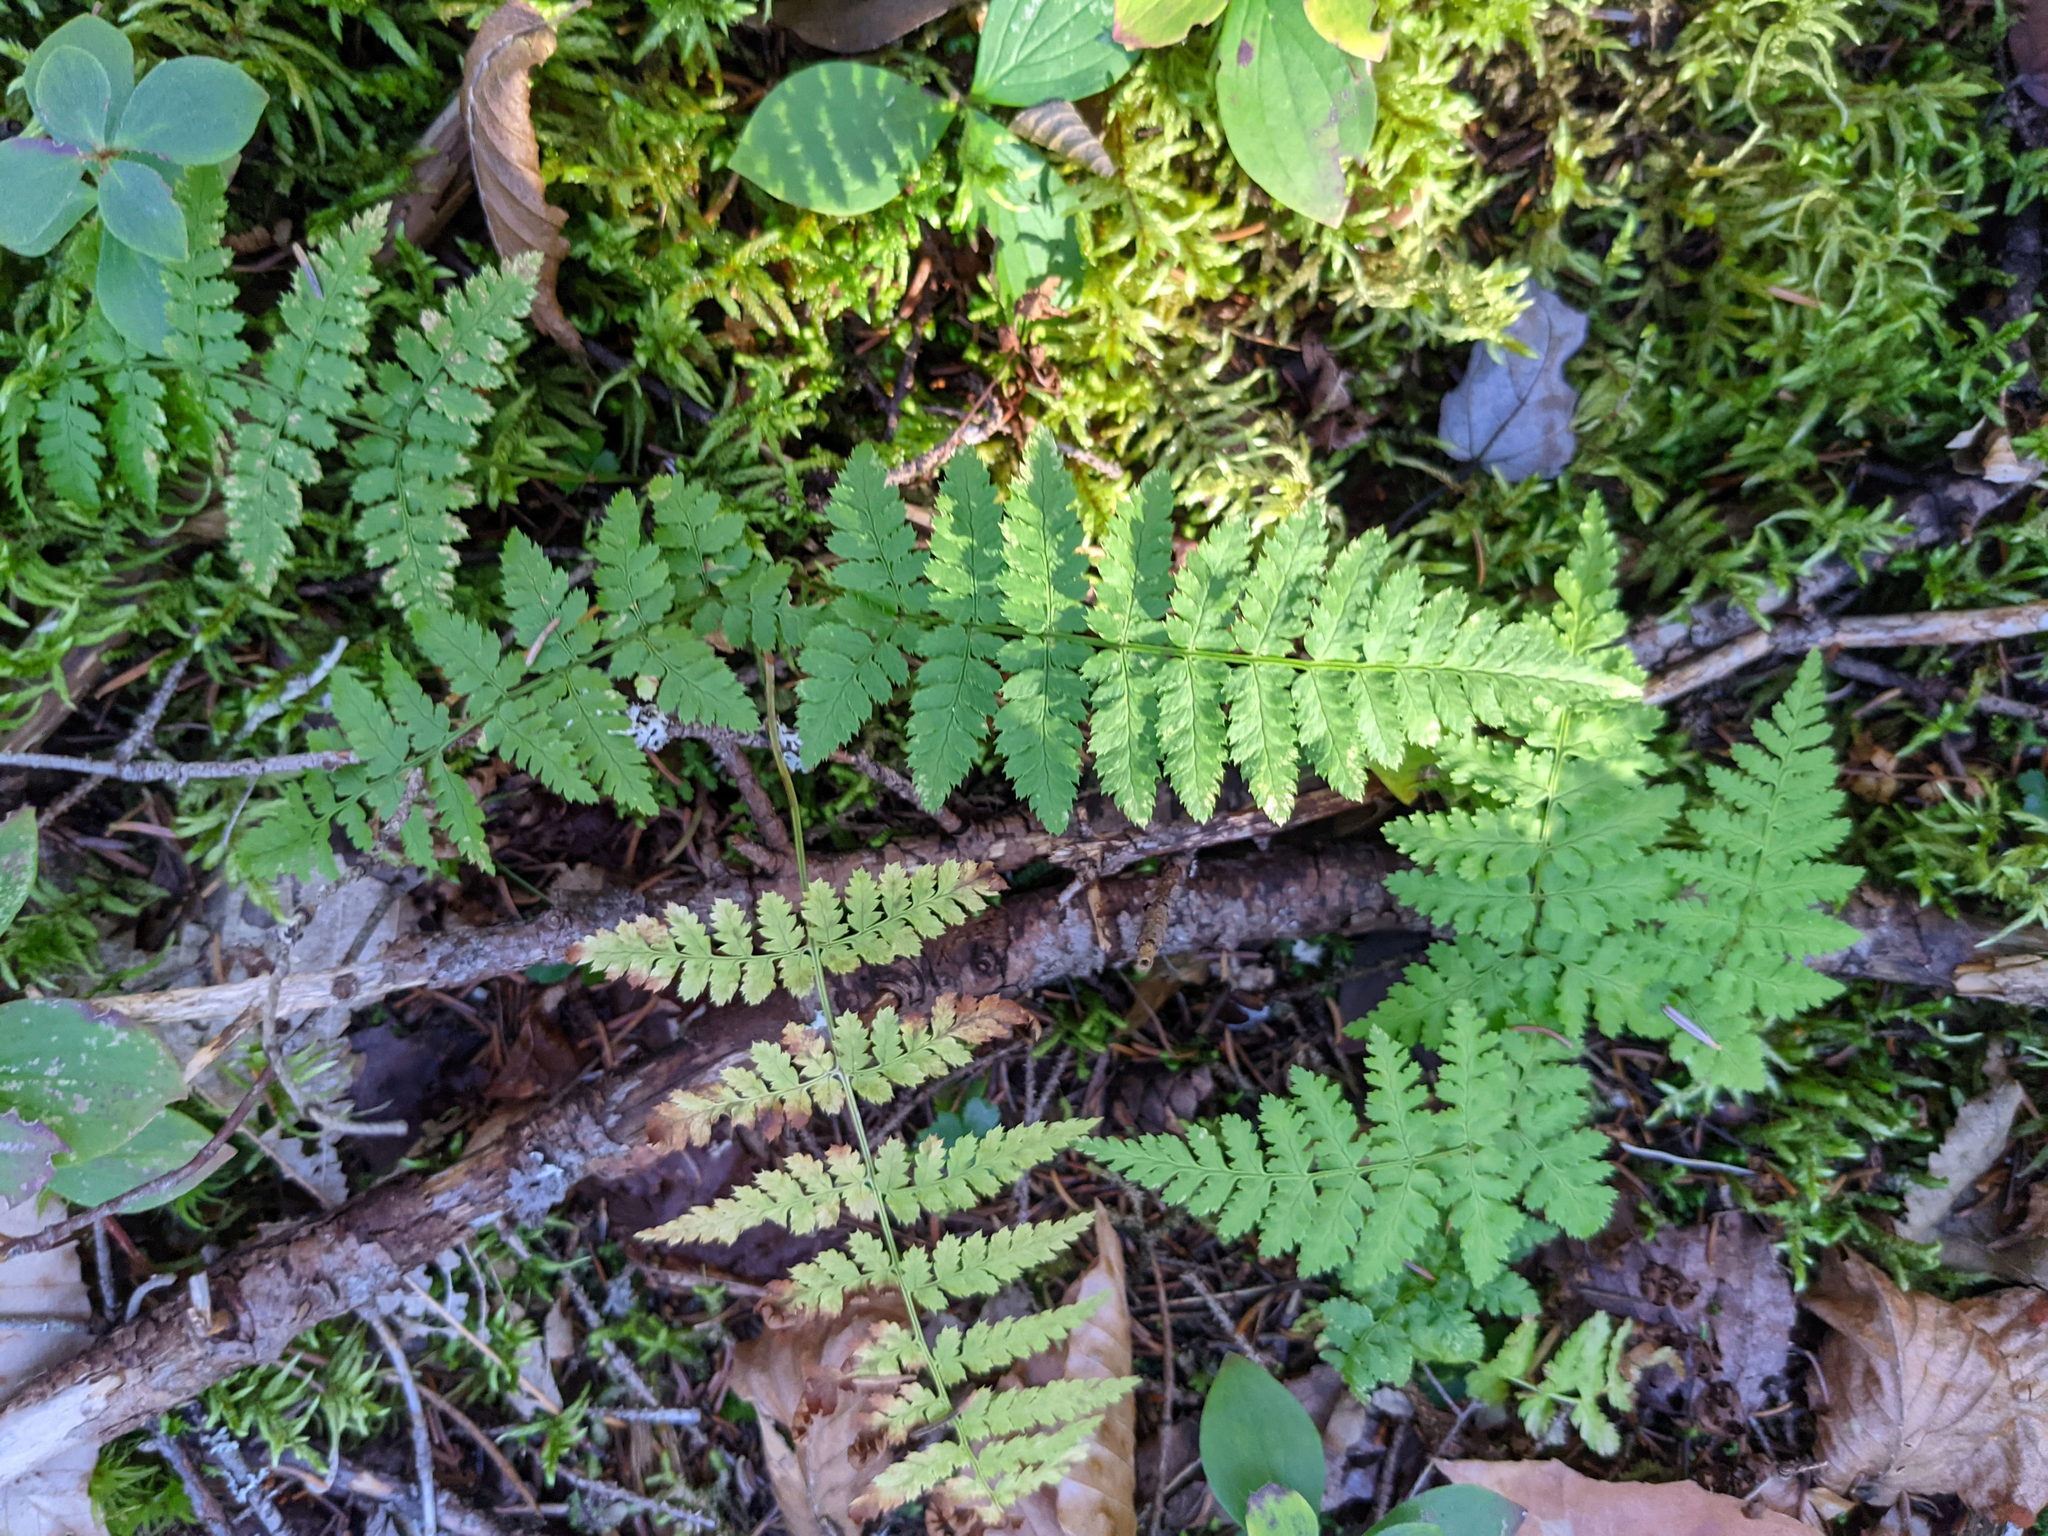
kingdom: Plantae
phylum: Tracheophyta
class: Polypodiopsida
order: Polypodiales
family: Dryopteridaceae
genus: Dryopteris
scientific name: Dryopteris intermedia
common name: Evergreen wood fern
